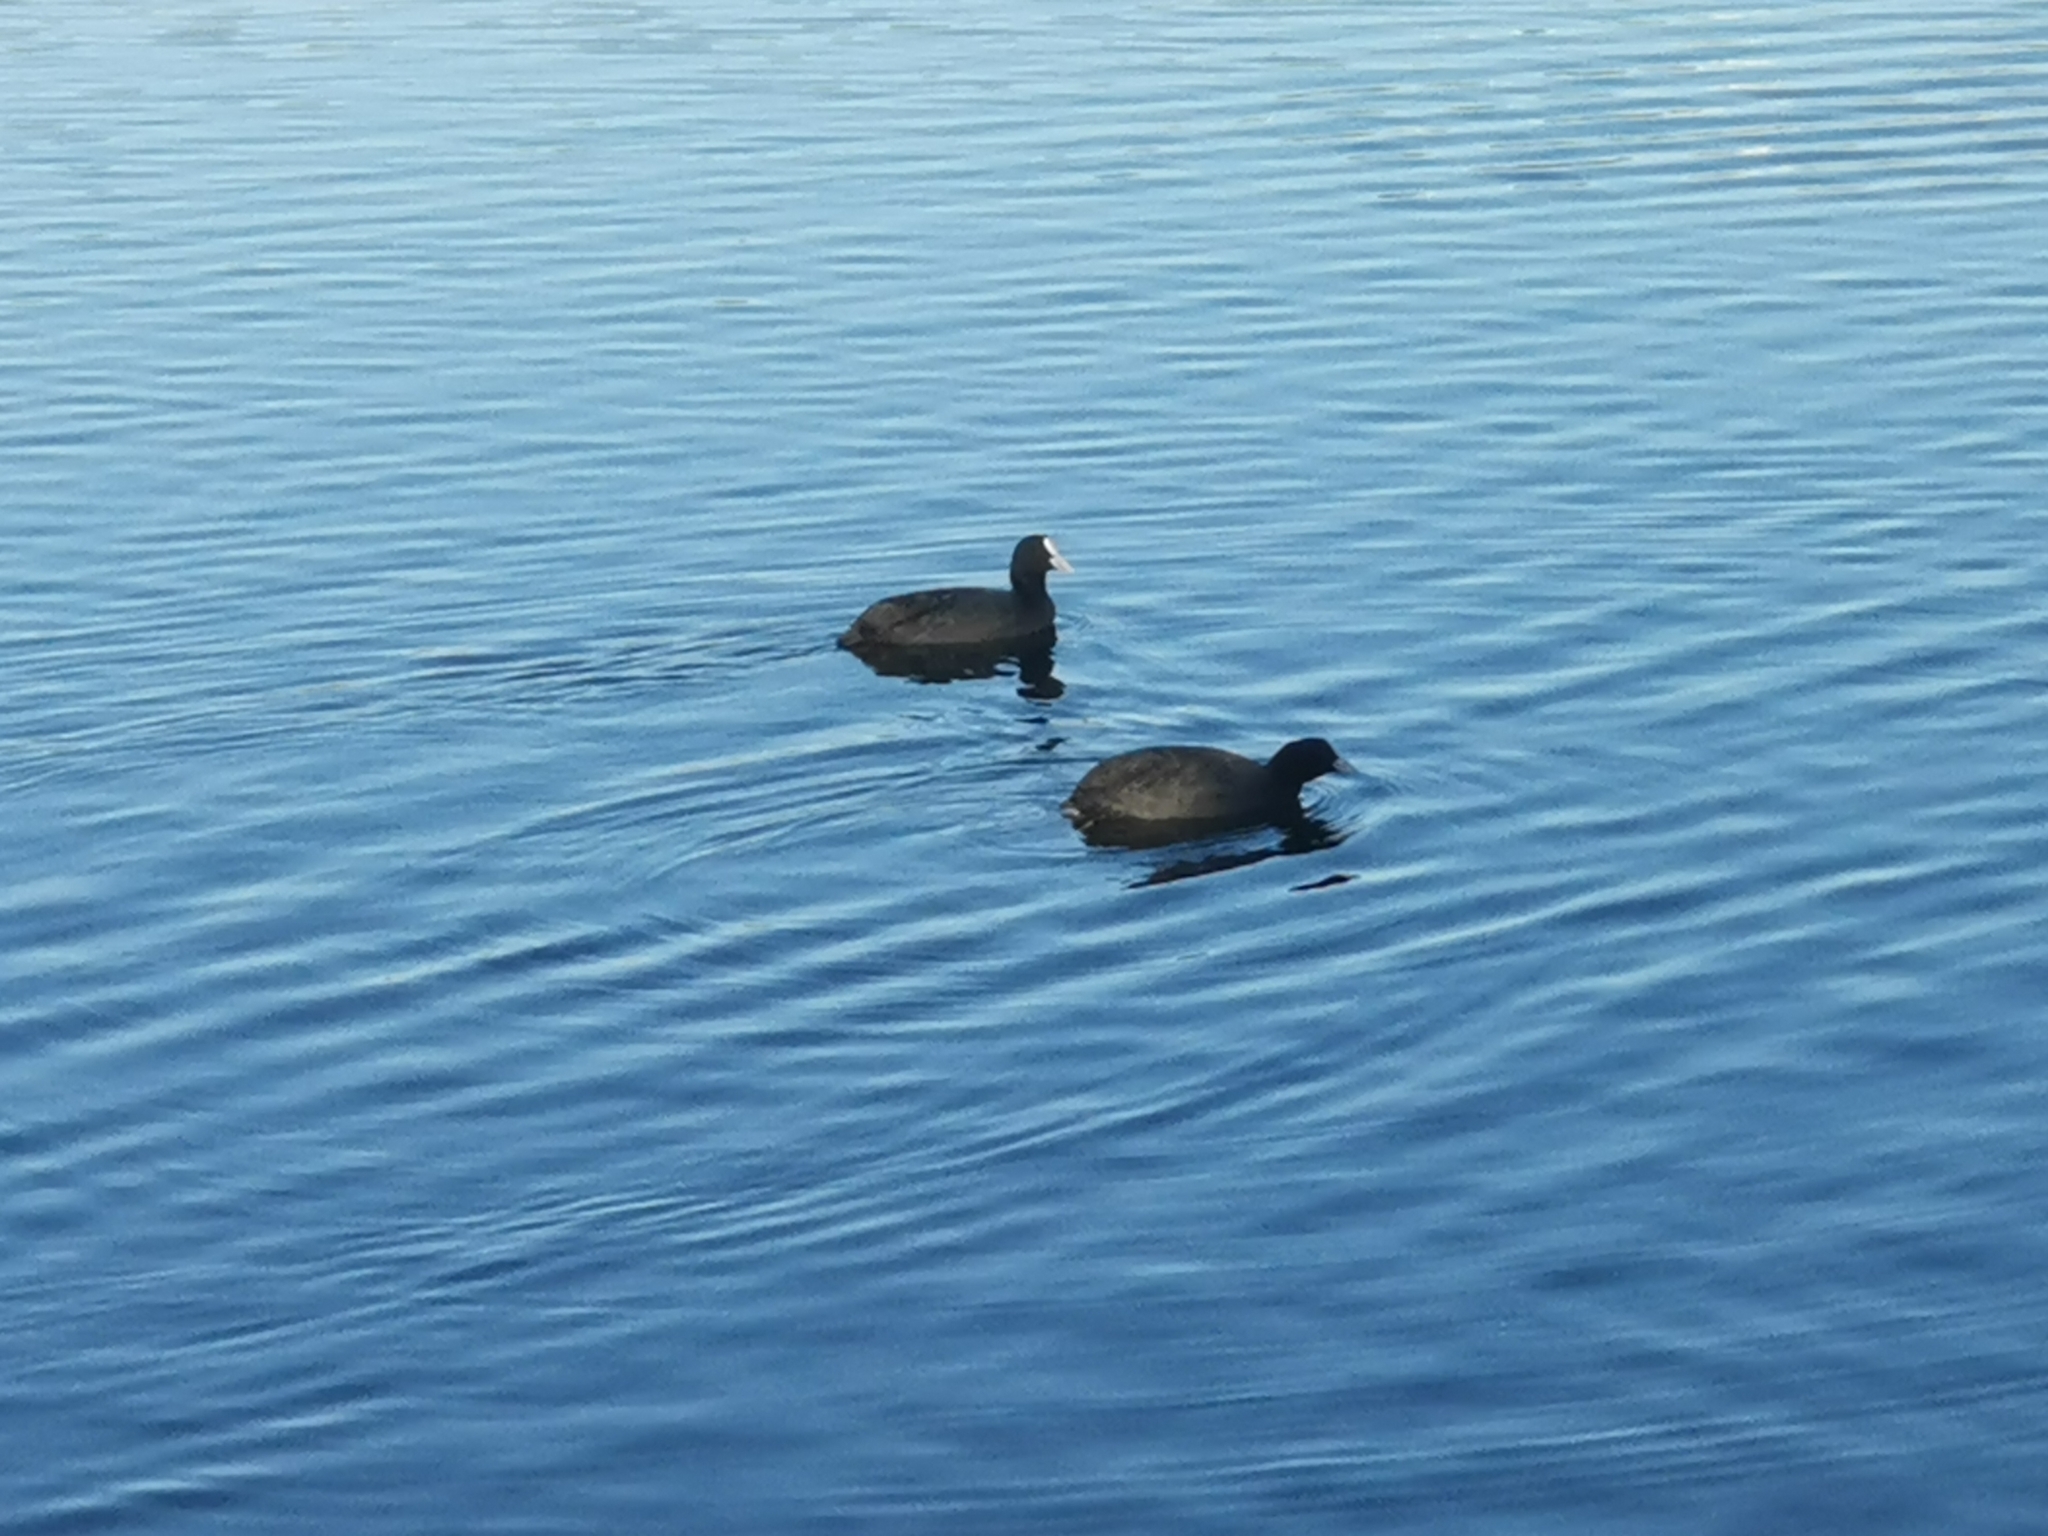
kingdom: Animalia
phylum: Chordata
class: Aves
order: Gruiformes
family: Rallidae
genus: Fulica
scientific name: Fulica atra
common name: Eurasian coot
